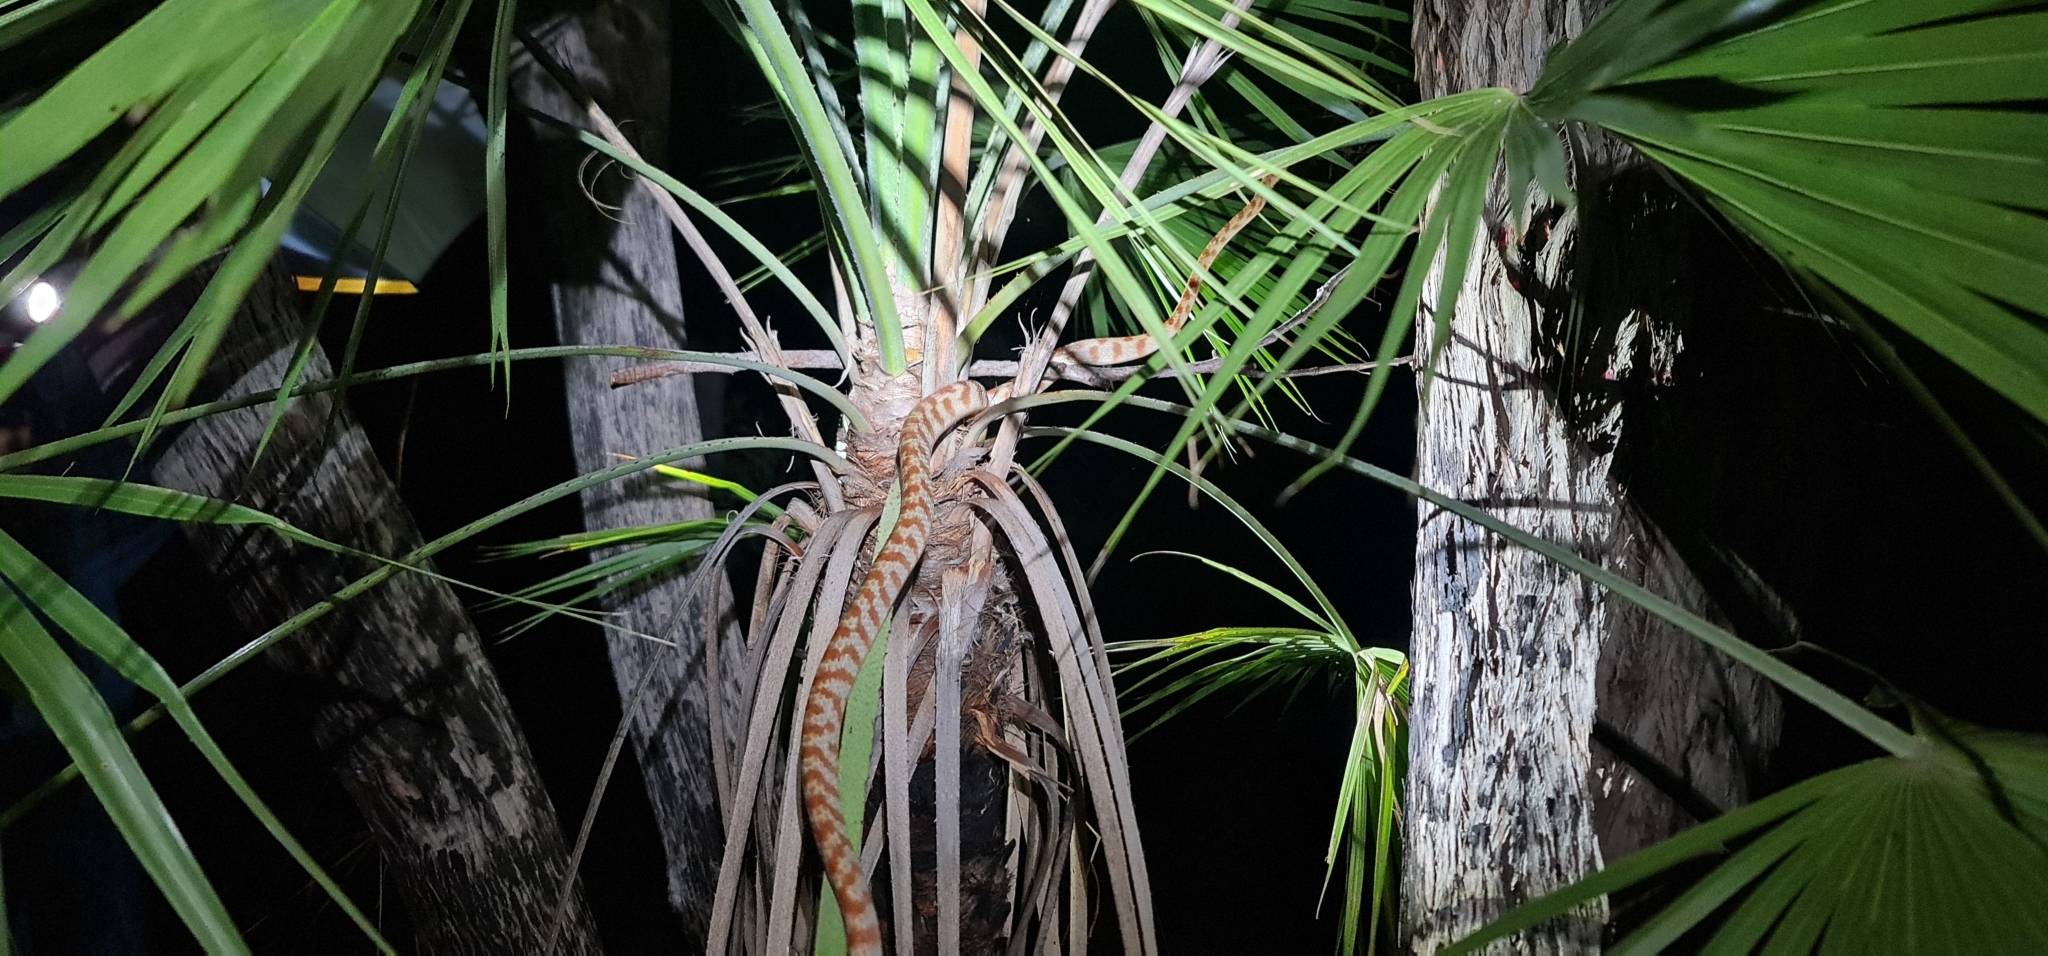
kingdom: Animalia
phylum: Chordata
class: Squamata
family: Colubridae
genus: Boiga
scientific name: Boiga irregularis
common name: Brown tree snake
